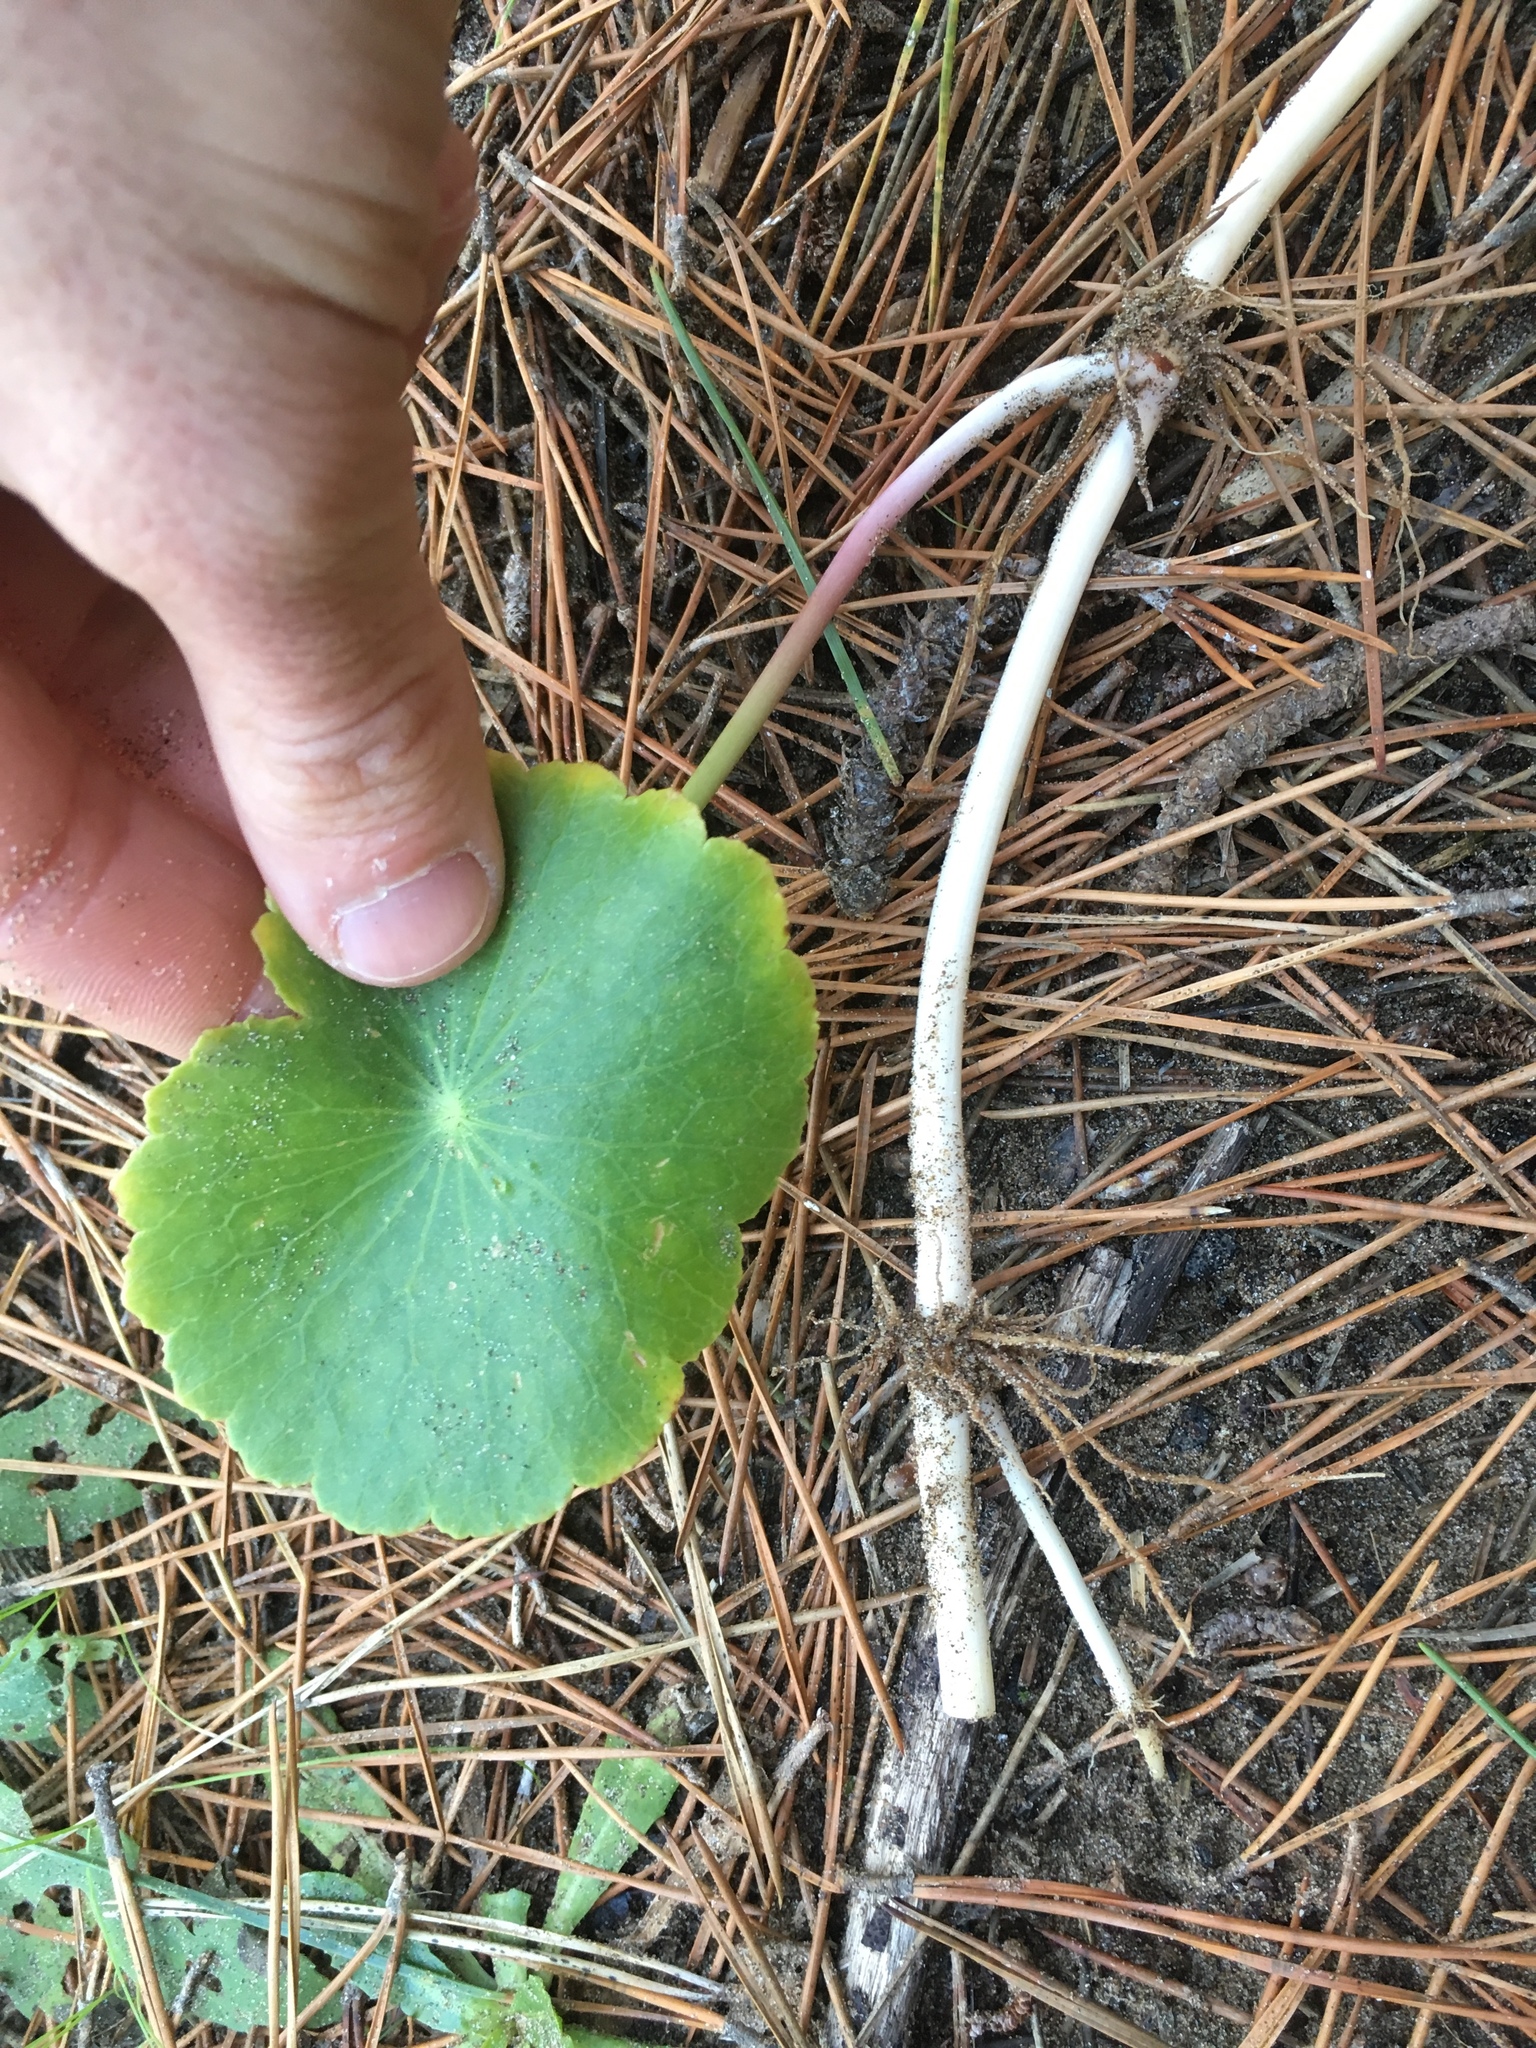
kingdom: Plantae
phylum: Tracheophyta
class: Magnoliopsida
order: Apiales
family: Araliaceae
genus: Hydrocotyle
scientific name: Hydrocotyle bonariensis
